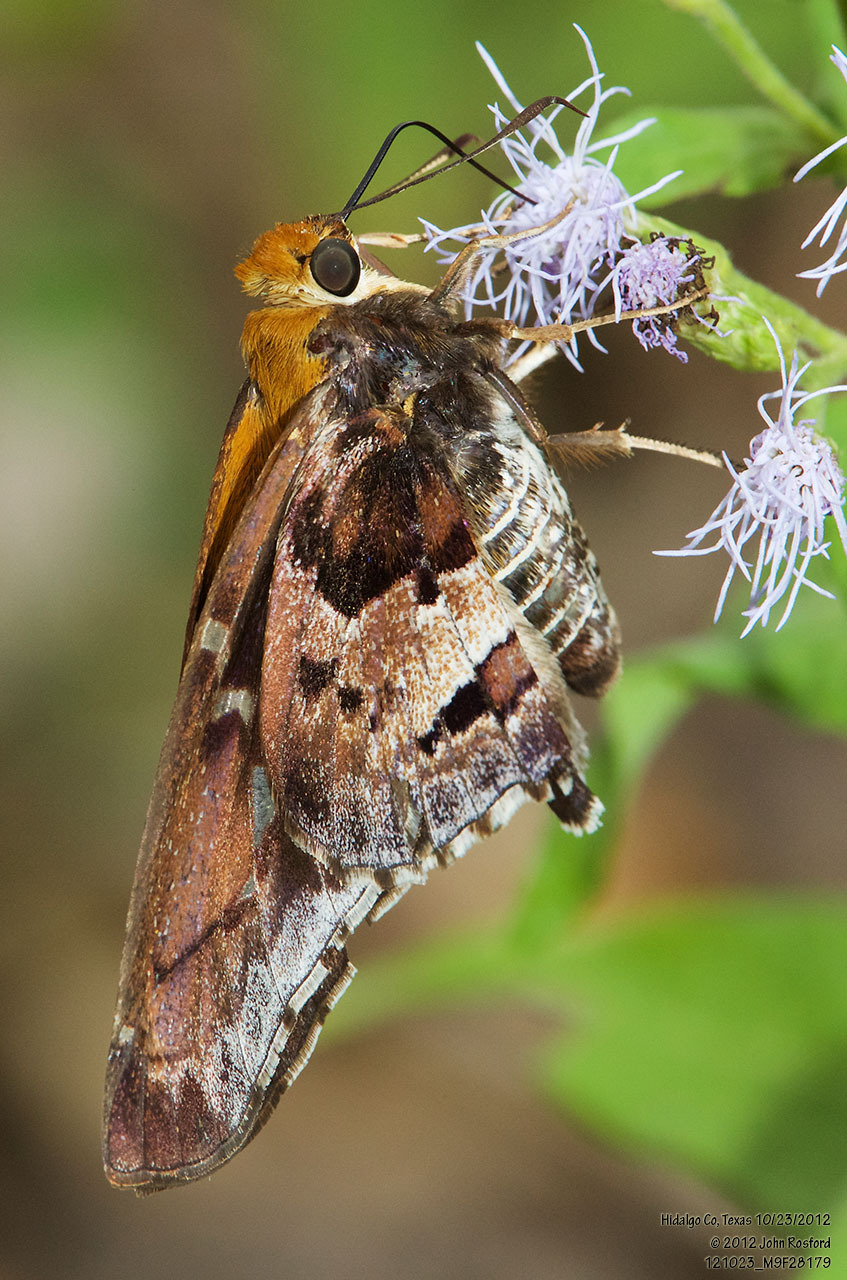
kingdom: Animalia
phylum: Arthropoda
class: Insecta
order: Lepidoptera
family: Hesperiidae
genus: Proteides
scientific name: Proteides mercurius
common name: Mercurial skipper
